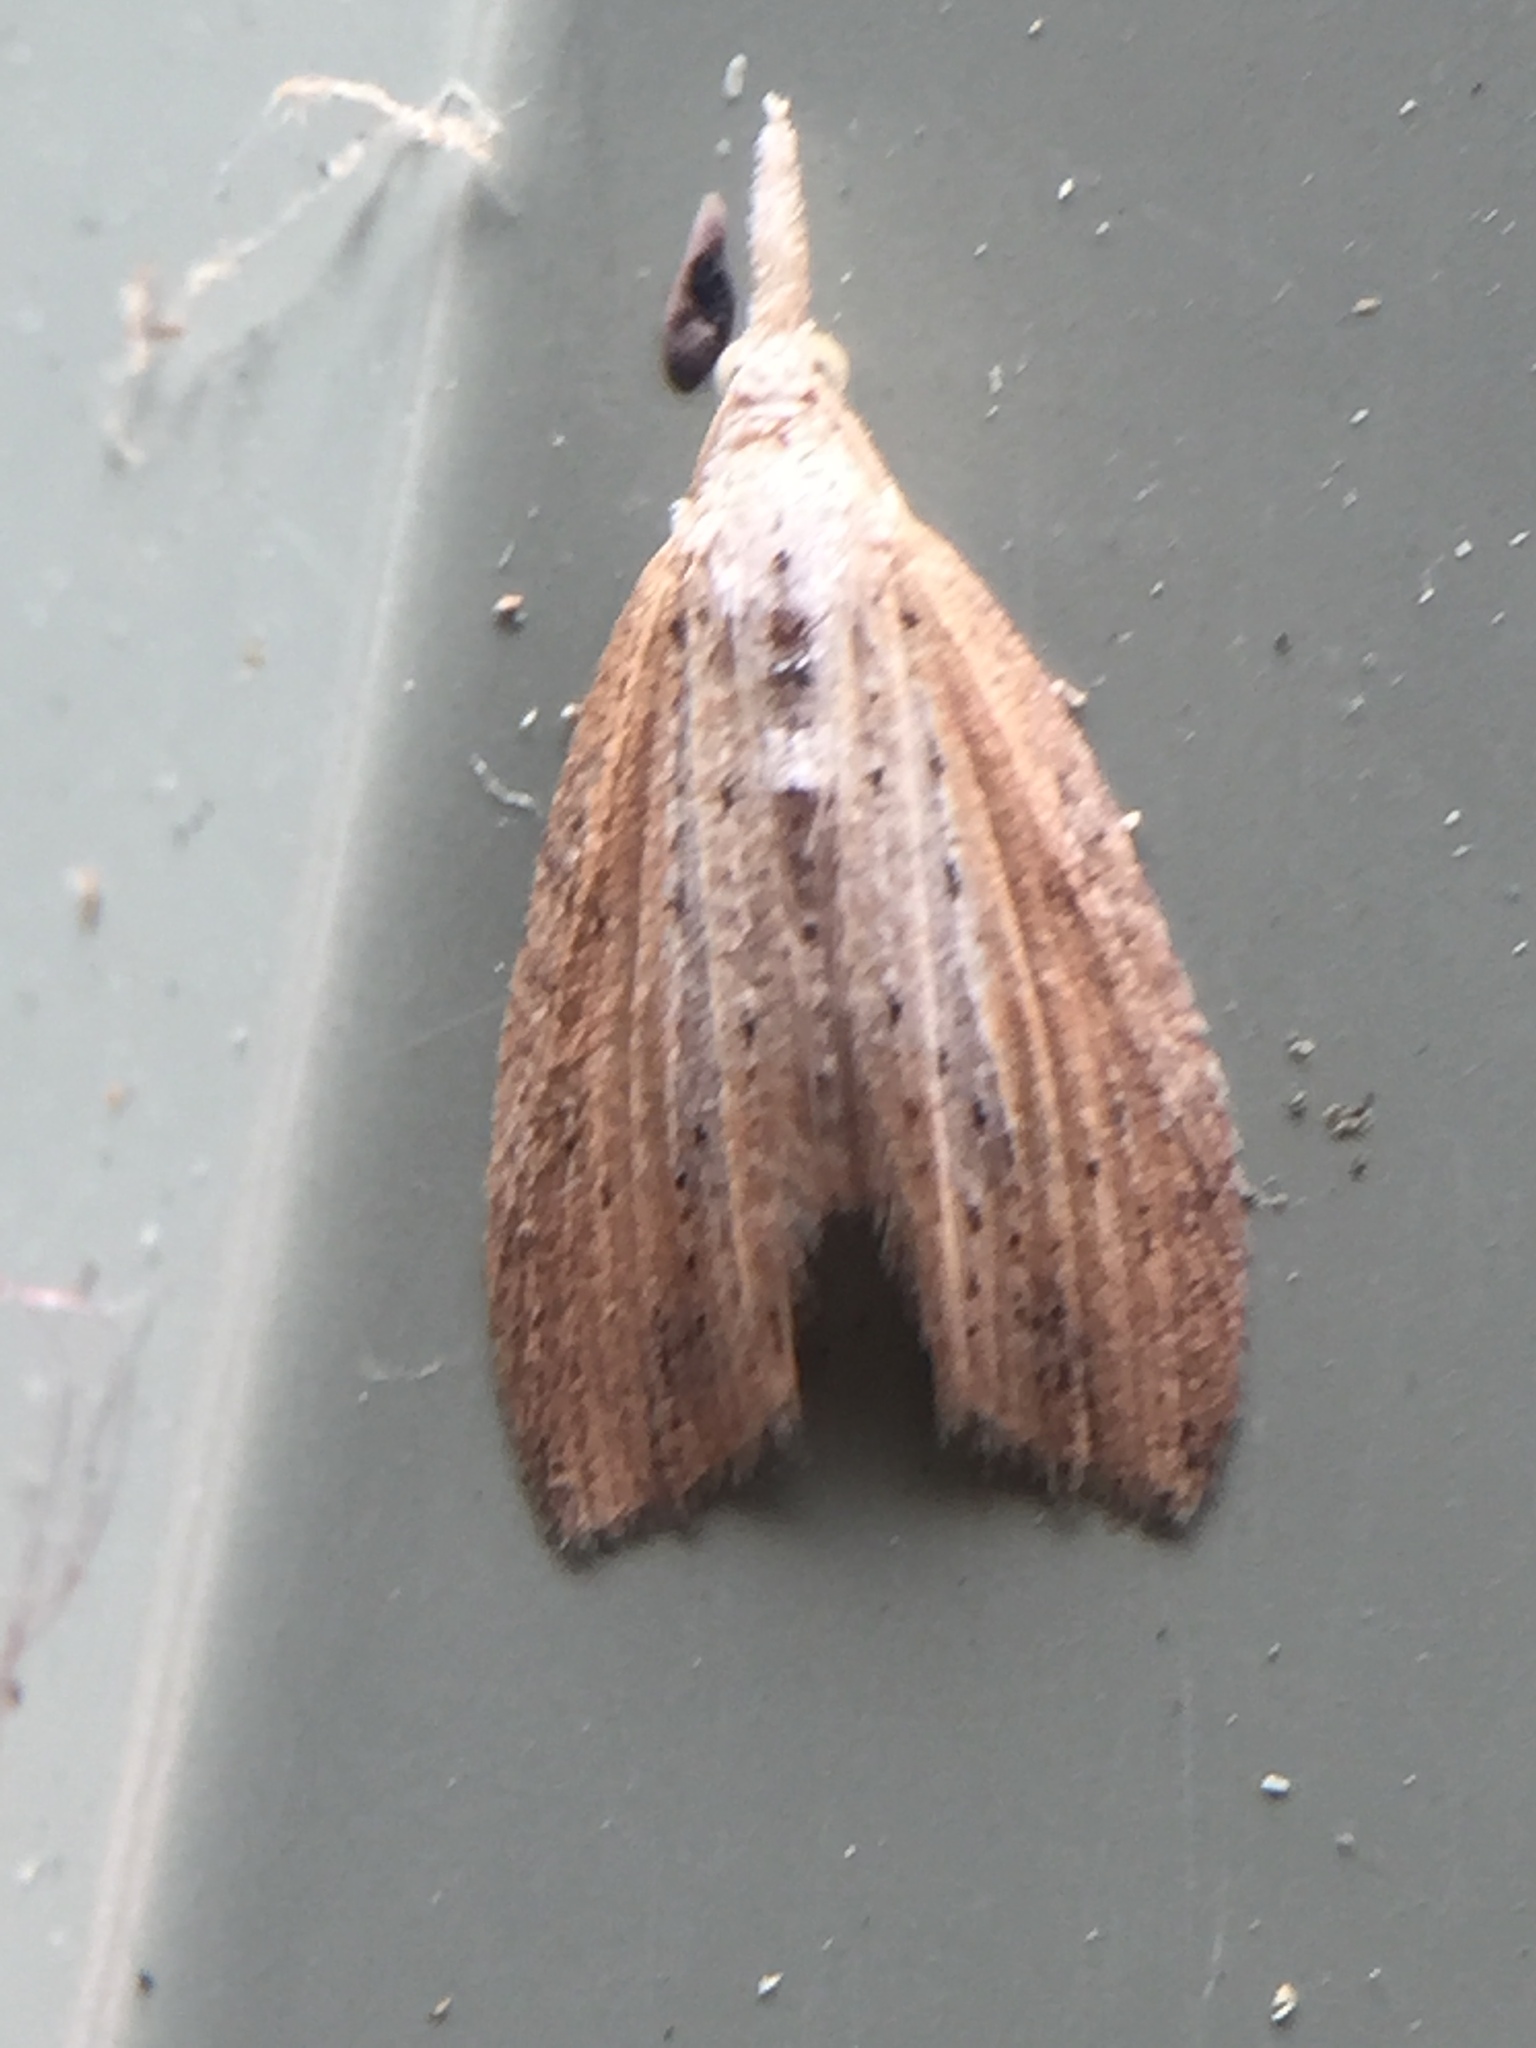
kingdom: Animalia
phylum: Arthropoda
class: Insecta
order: Lepidoptera
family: Geometridae
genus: Microdes
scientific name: Microdes epicryptis
